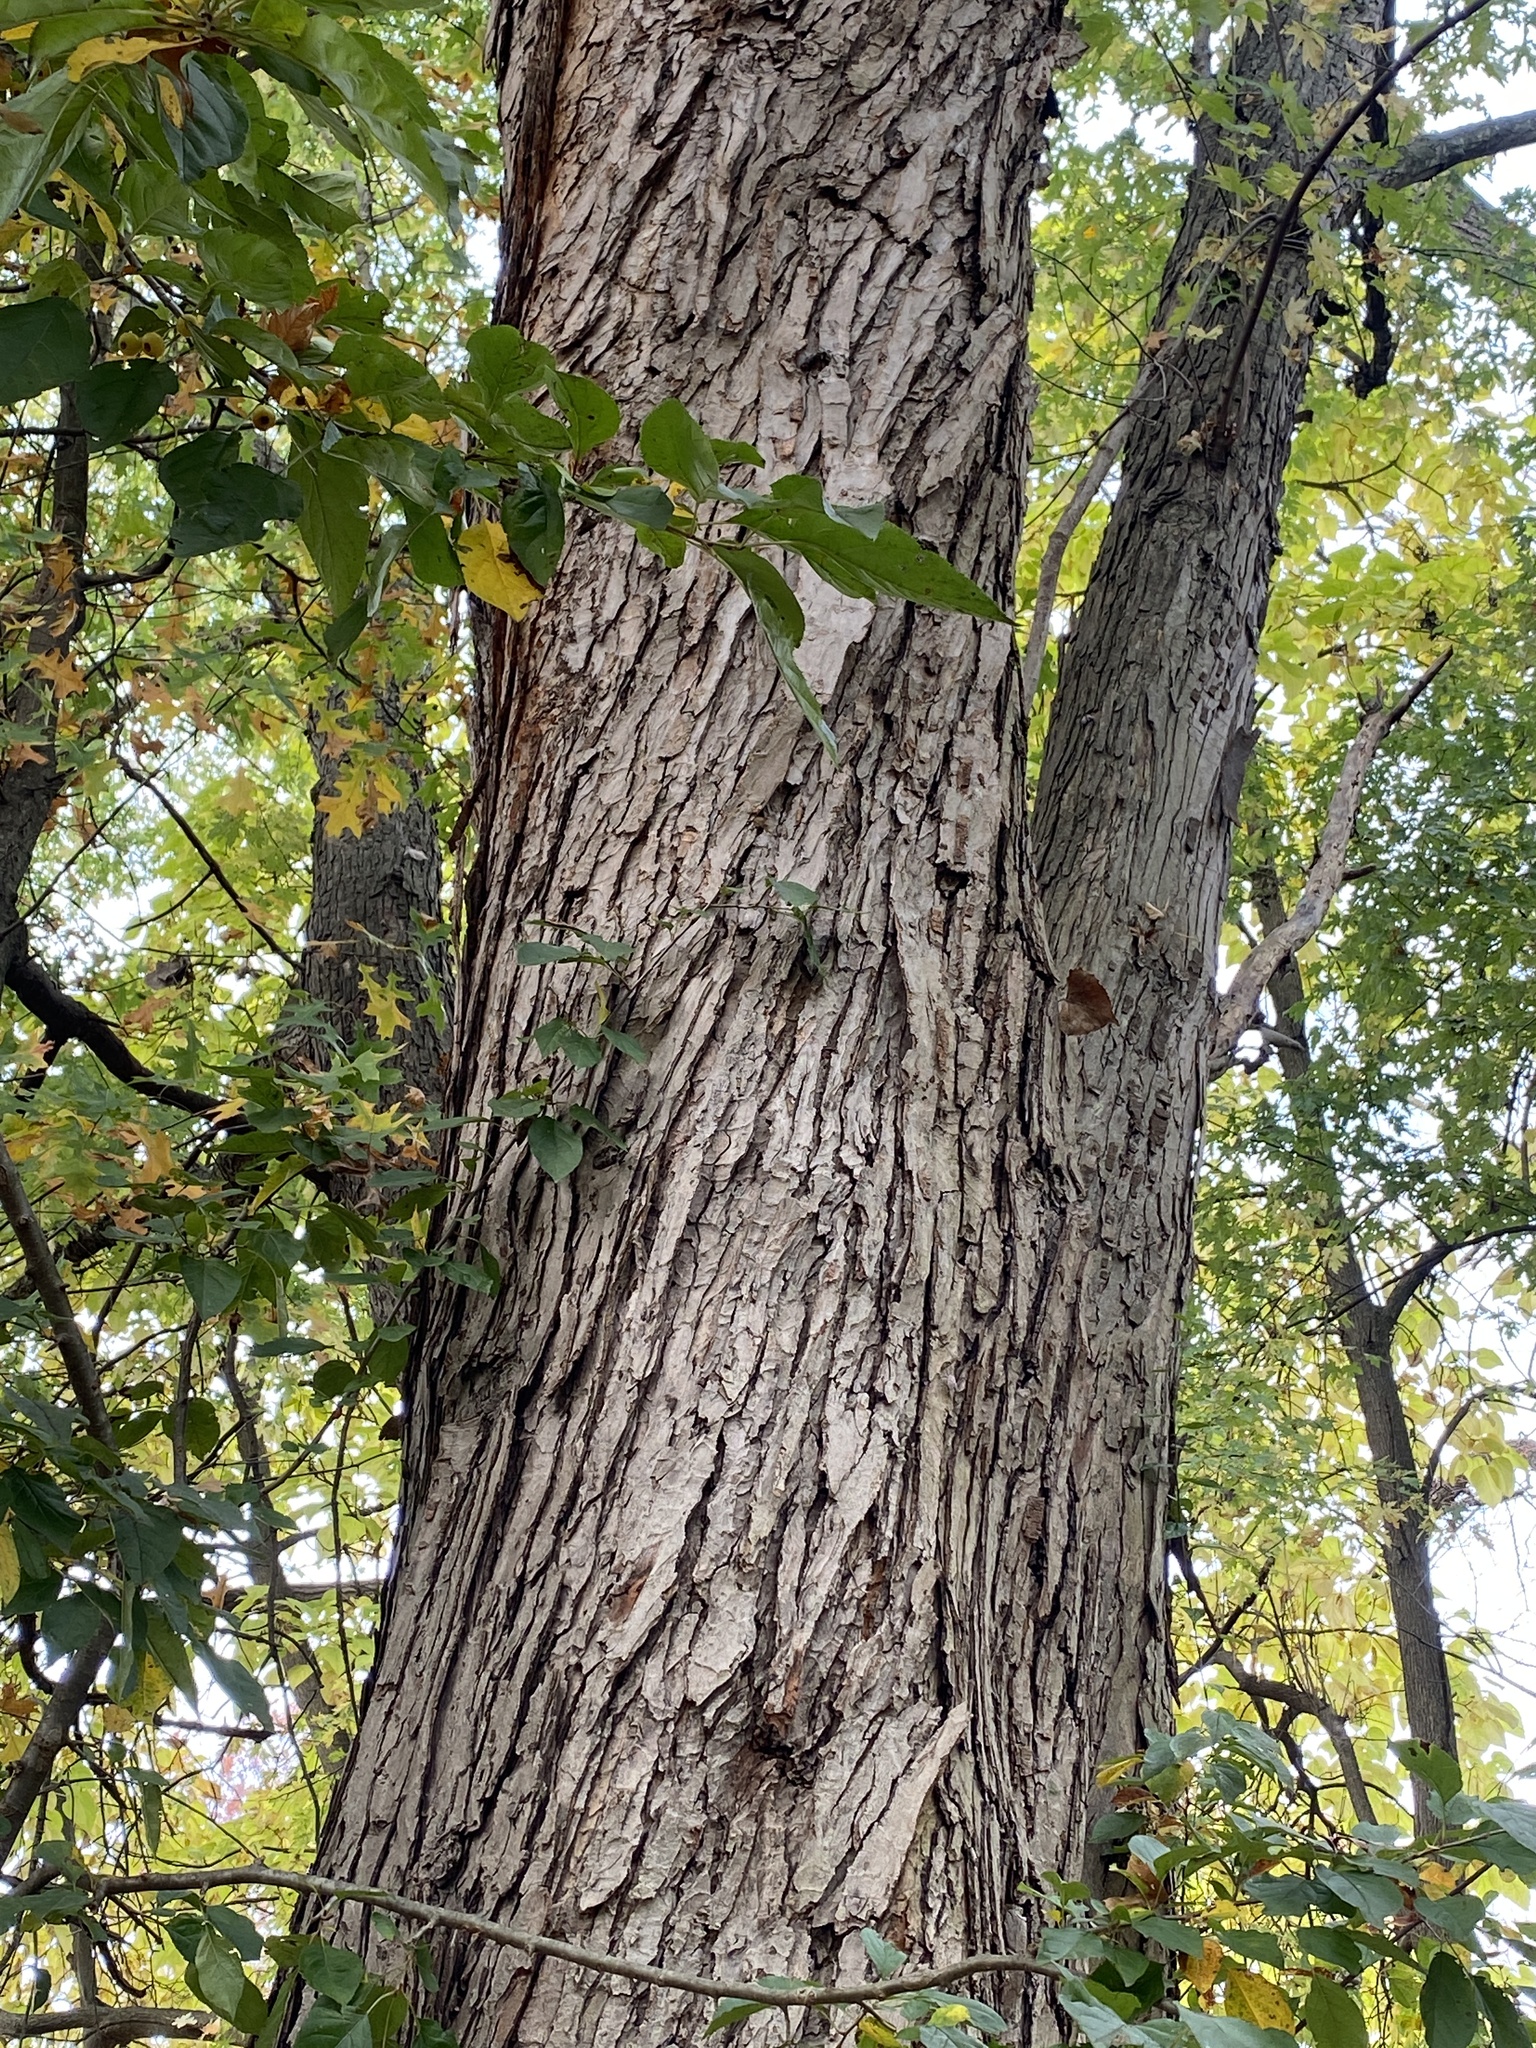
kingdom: Plantae
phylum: Tracheophyta
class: Magnoliopsida
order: Sapindales
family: Sapindaceae
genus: Acer
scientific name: Acer saccharinum
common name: Silver maple
